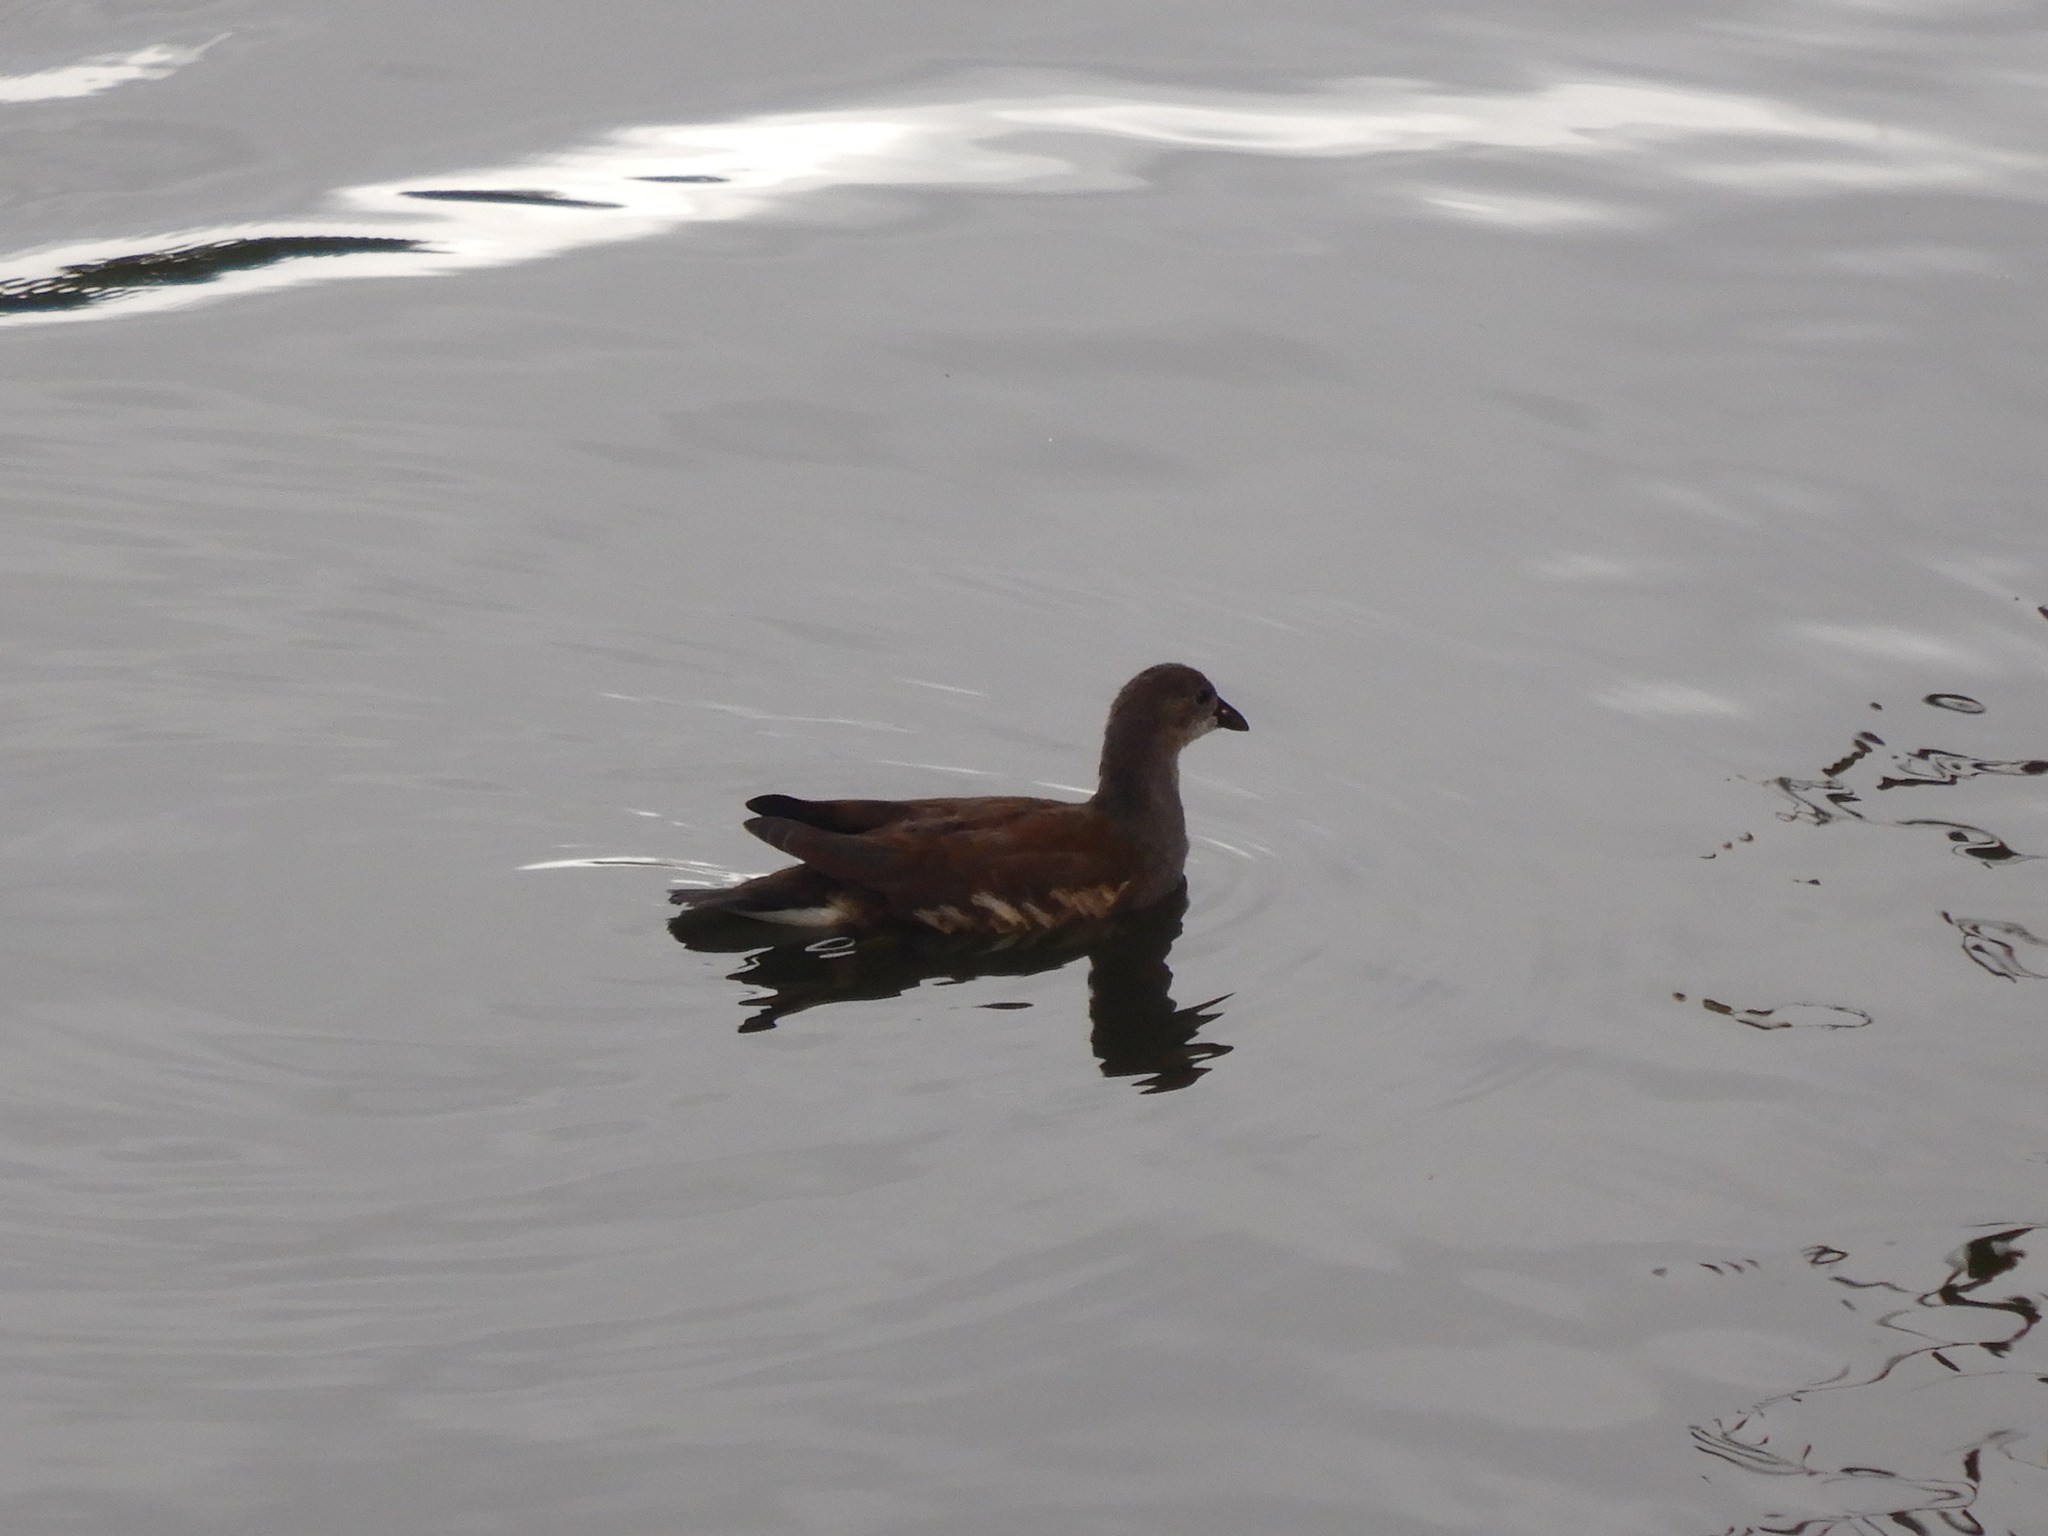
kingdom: Animalia
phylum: Chordata
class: Aves
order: Gruiformes
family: Rallidae
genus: Gallinula
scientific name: Gallinula chloropus
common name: Common moorhen
